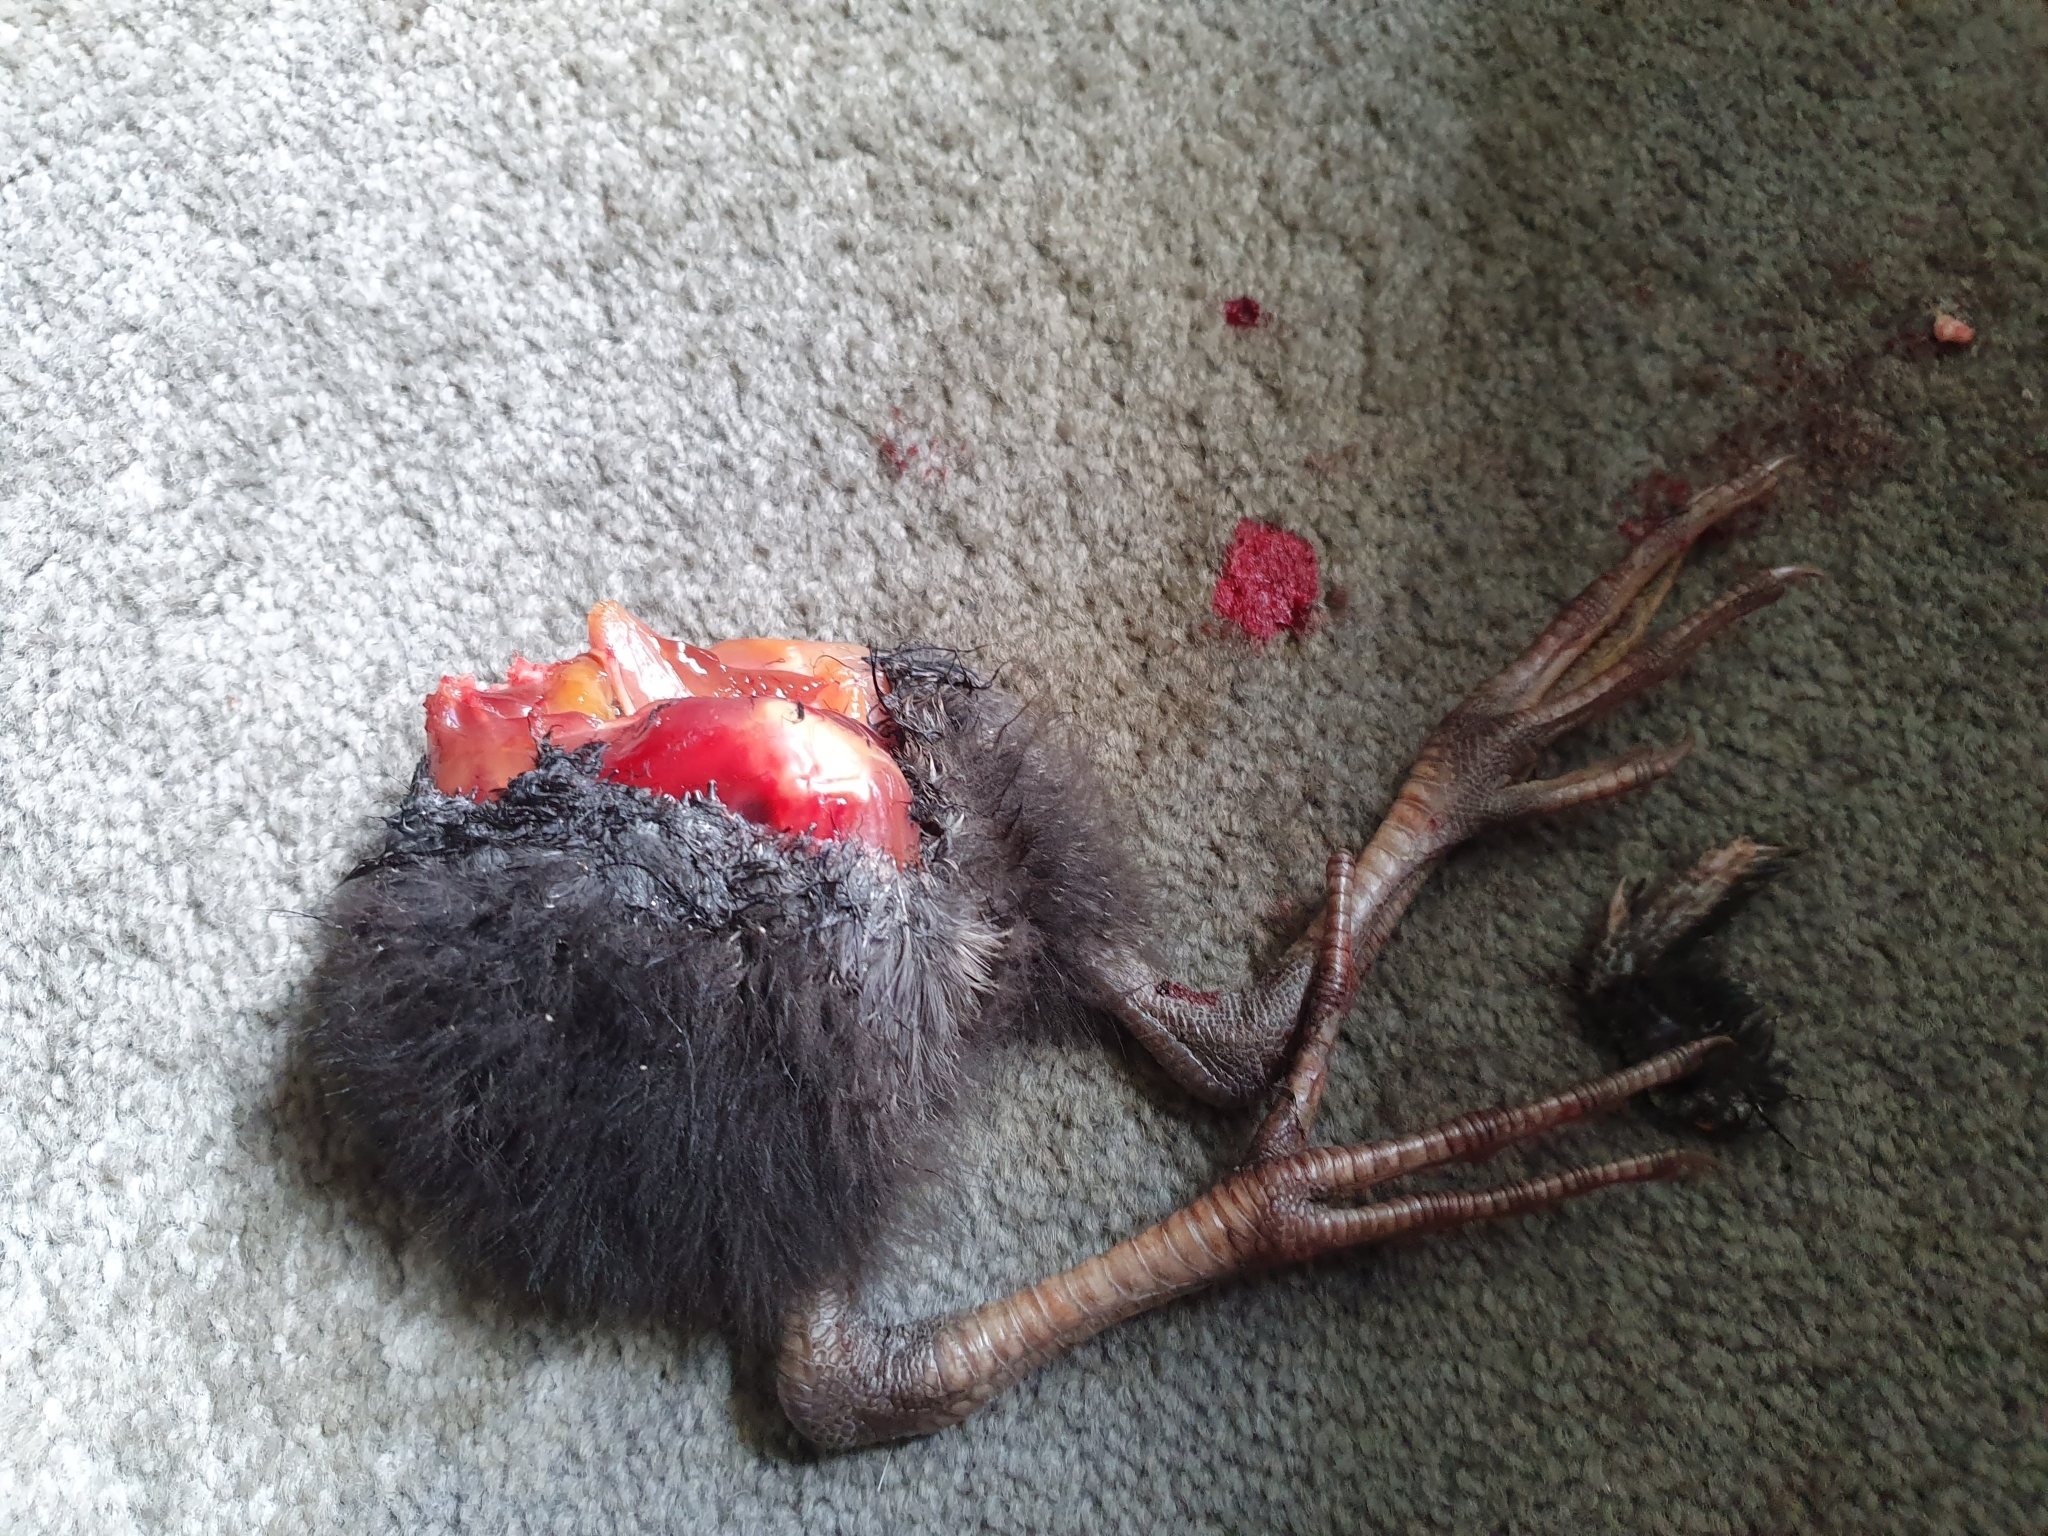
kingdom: Animalia
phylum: Chordata
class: Aves
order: Gruiformes
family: Rallidae
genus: Porphyrio
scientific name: Porphyrio melanotus
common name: Australasian swamphen
